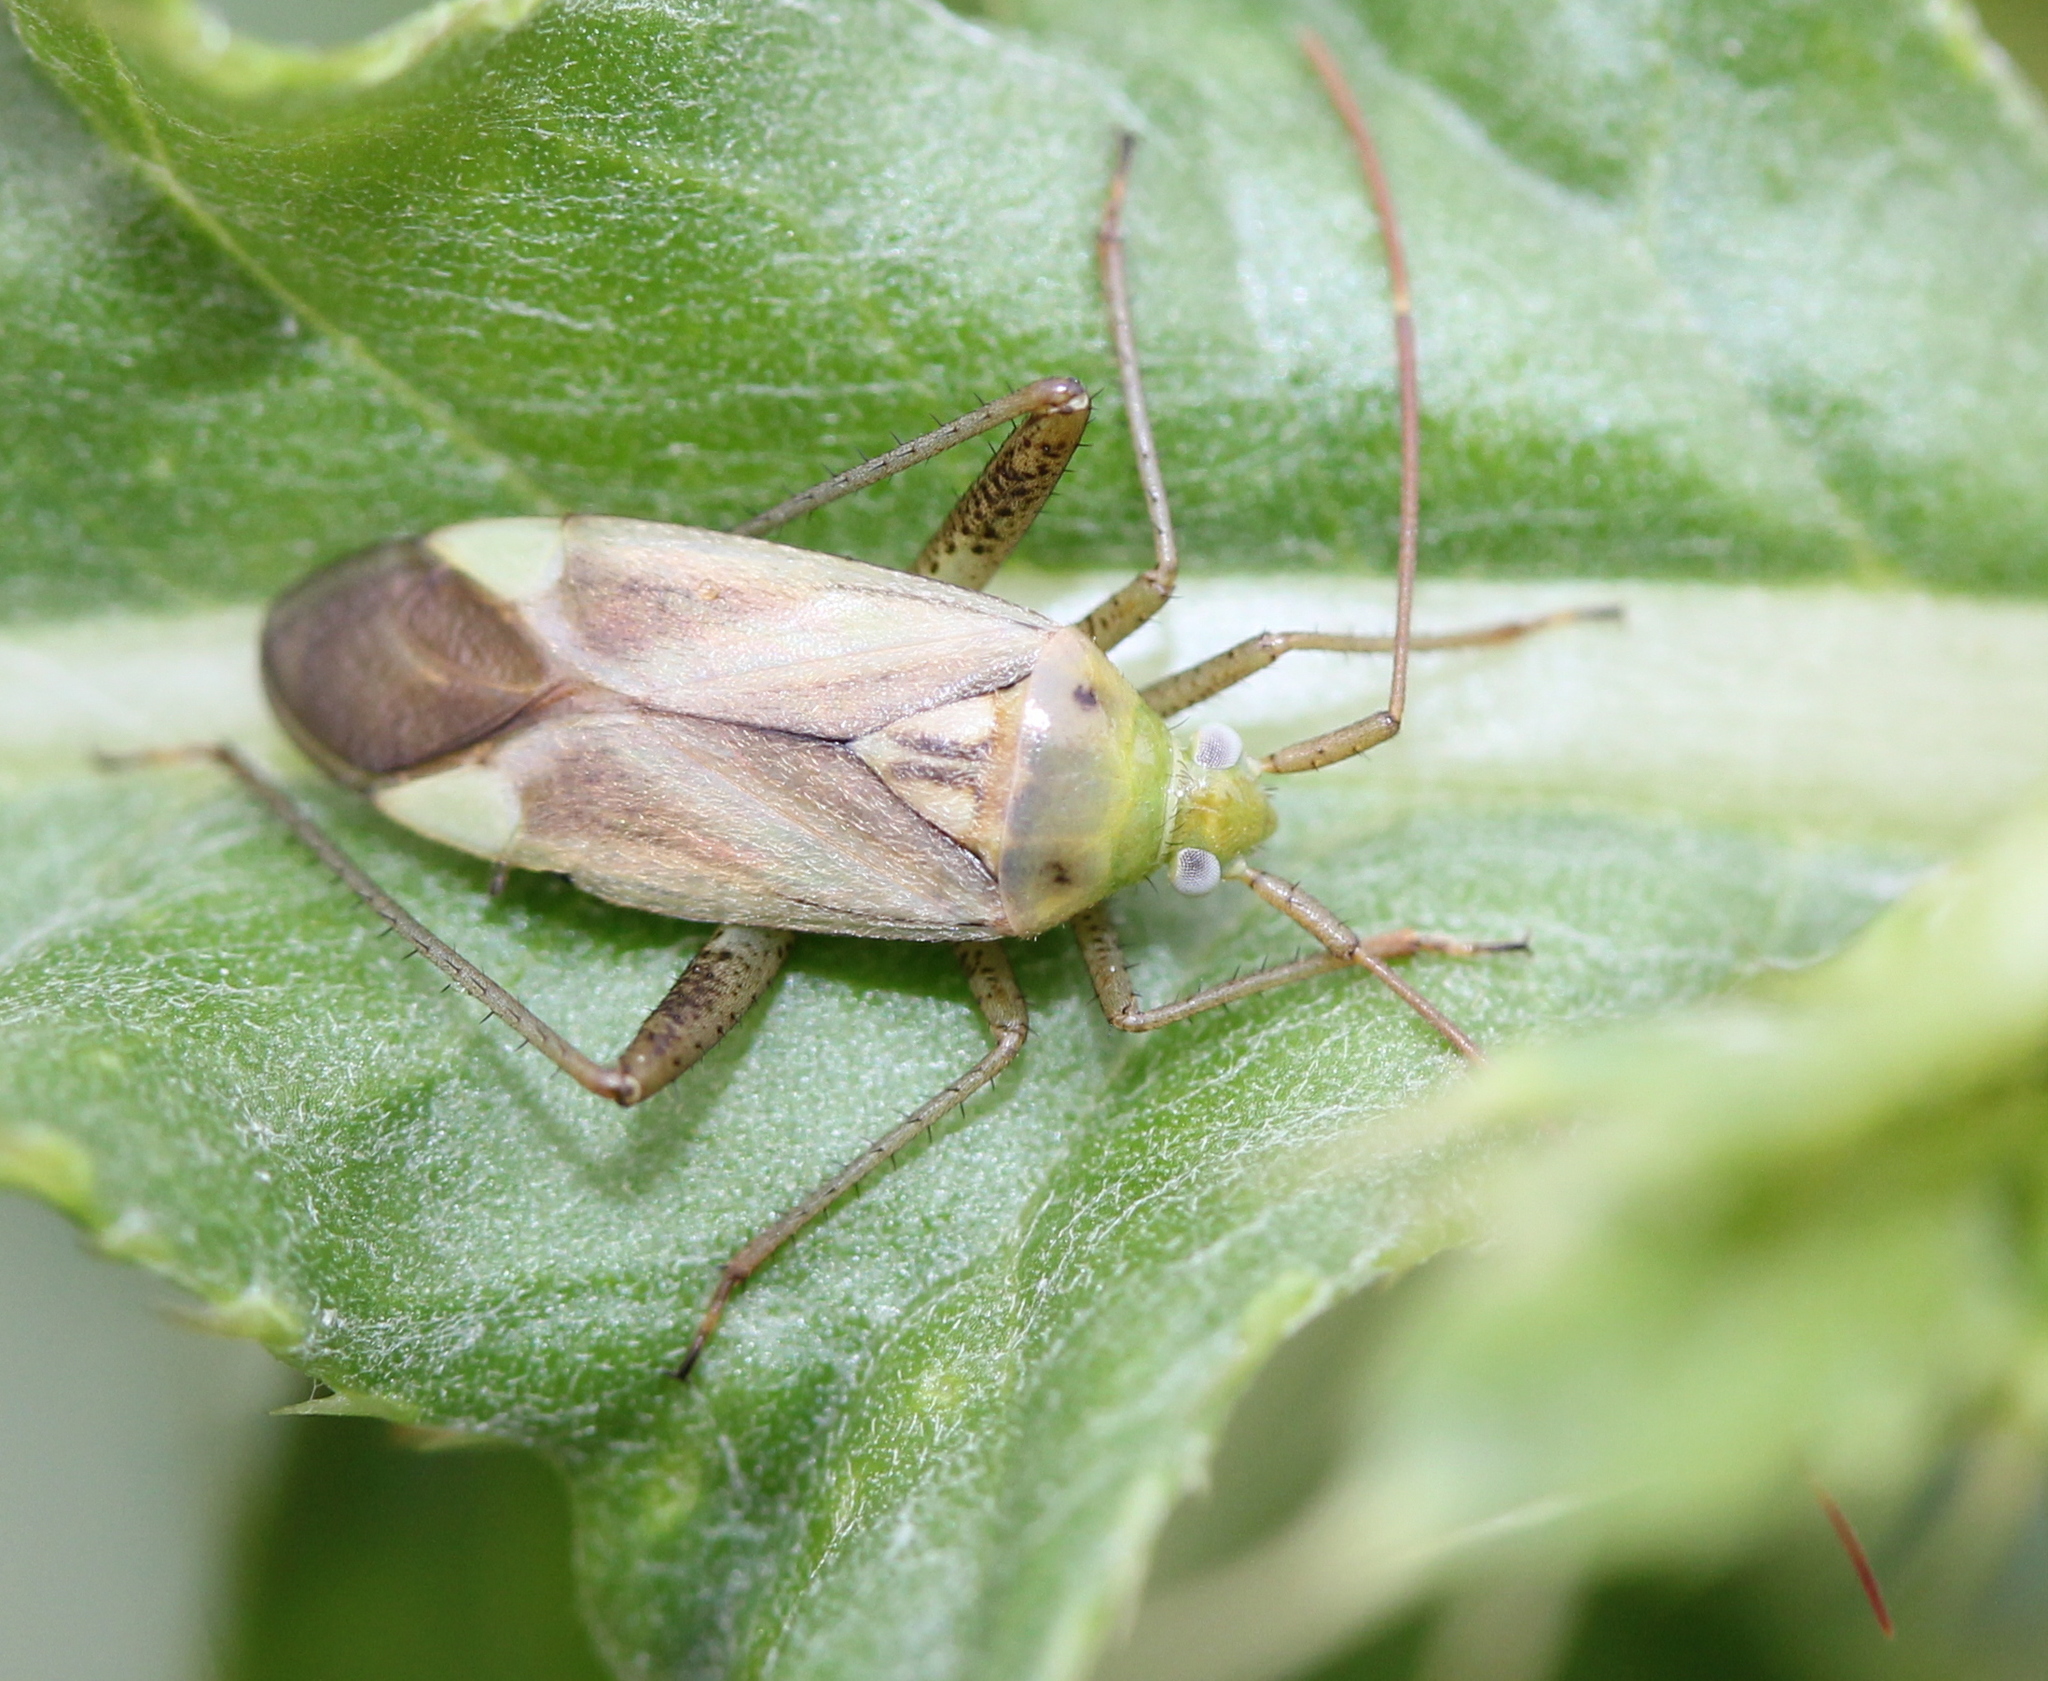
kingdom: Animalia
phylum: Arthropoda
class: Insecta
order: Hemiptera
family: Miridae
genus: Adelphocoris
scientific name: Adelphocoris lineolatus
